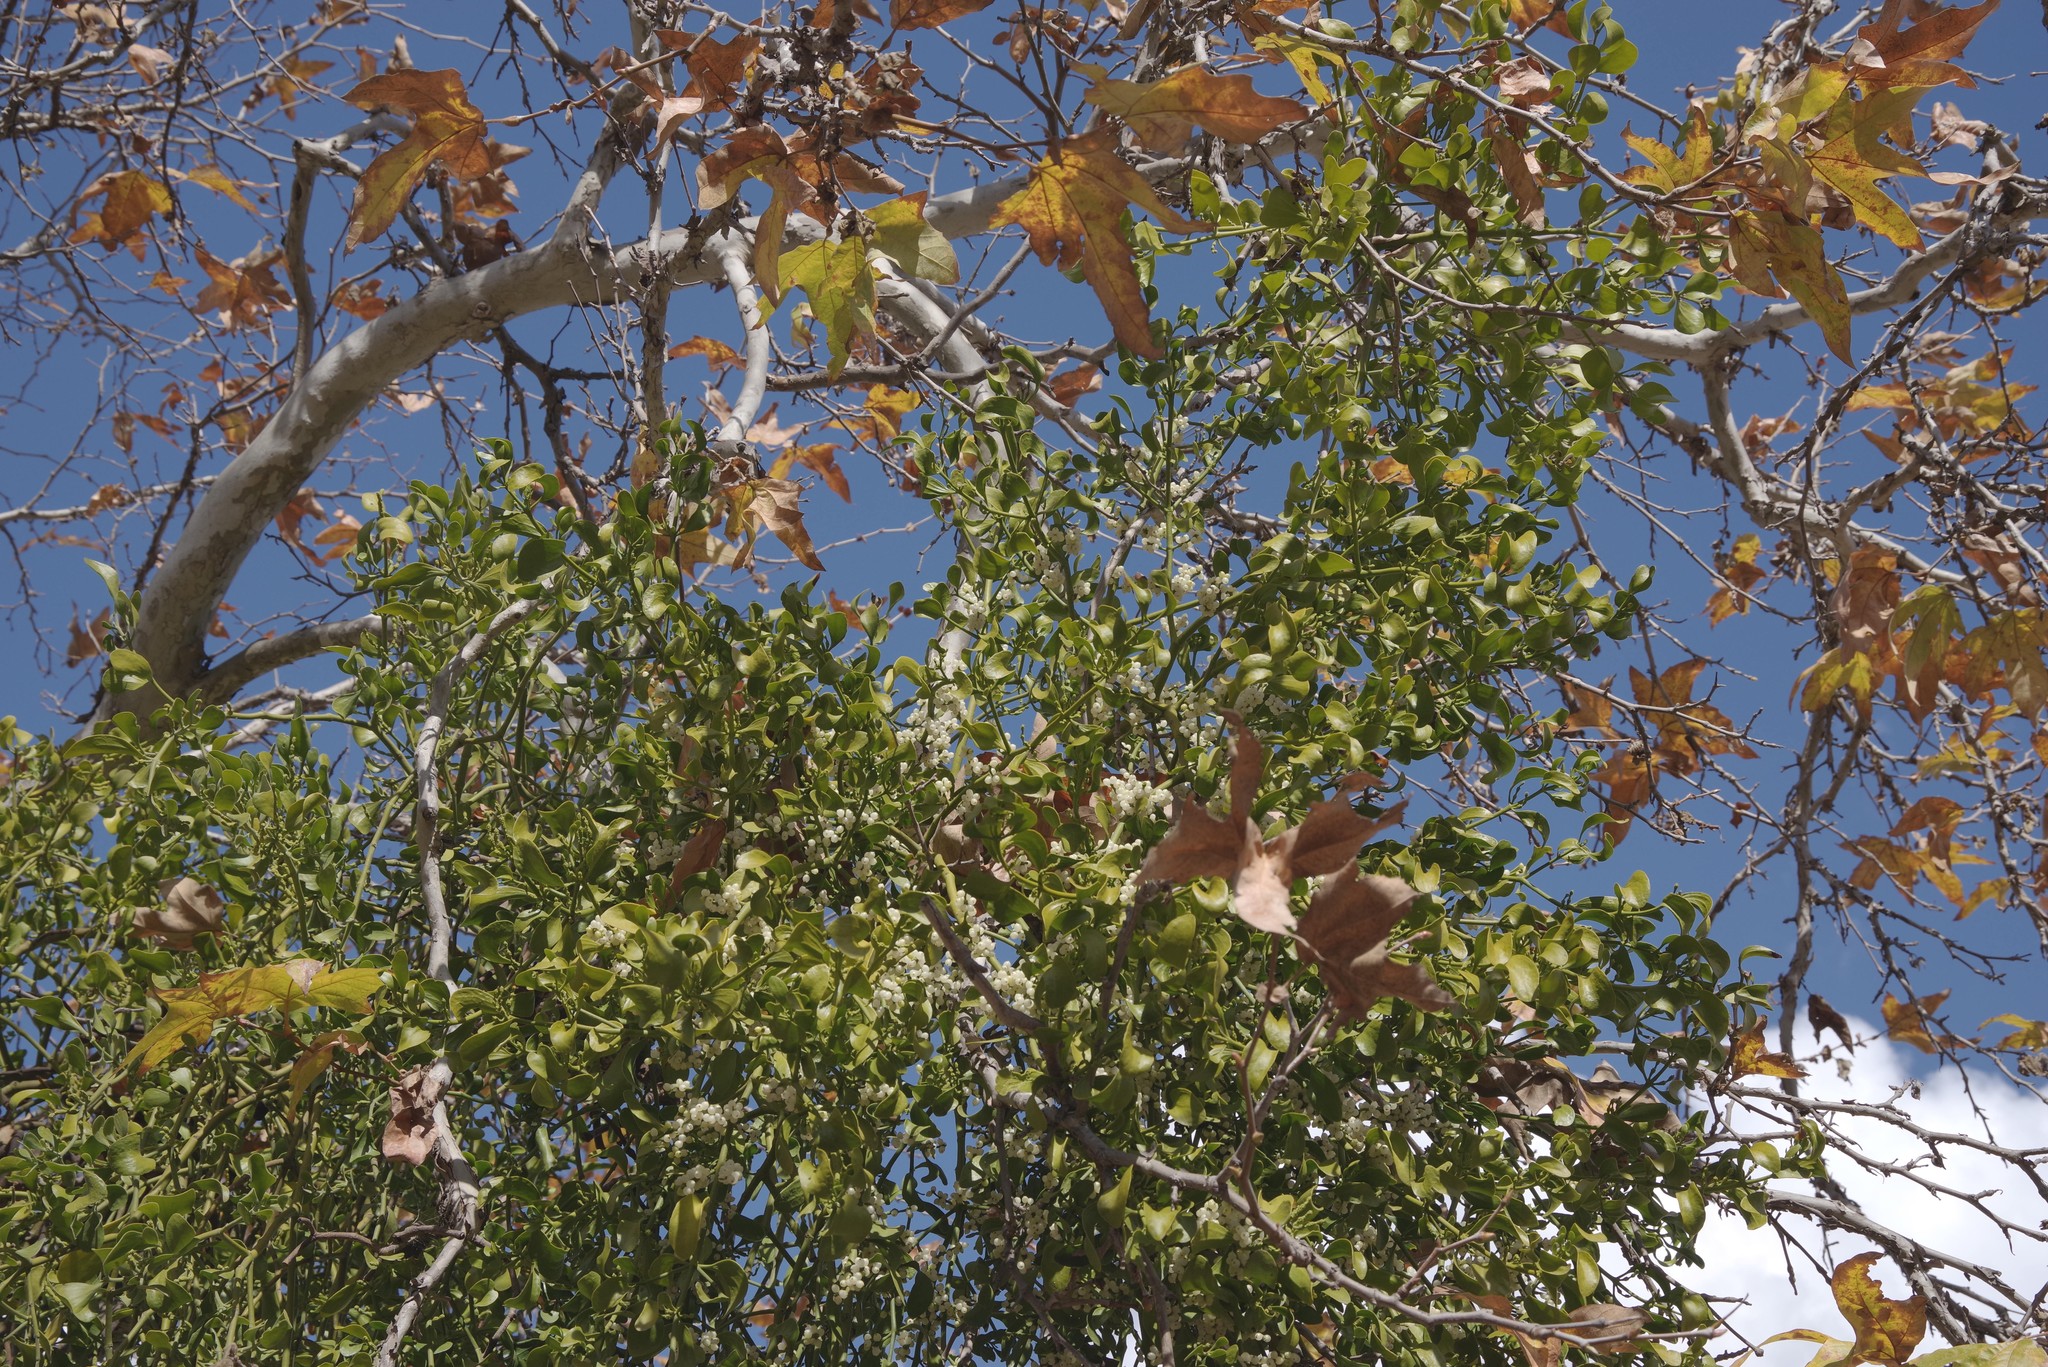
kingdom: Plantae
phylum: Tracheophyta
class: Magnoliopsida
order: Santalales
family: Viscaceae
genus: Phoradendron
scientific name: Phoradendron
